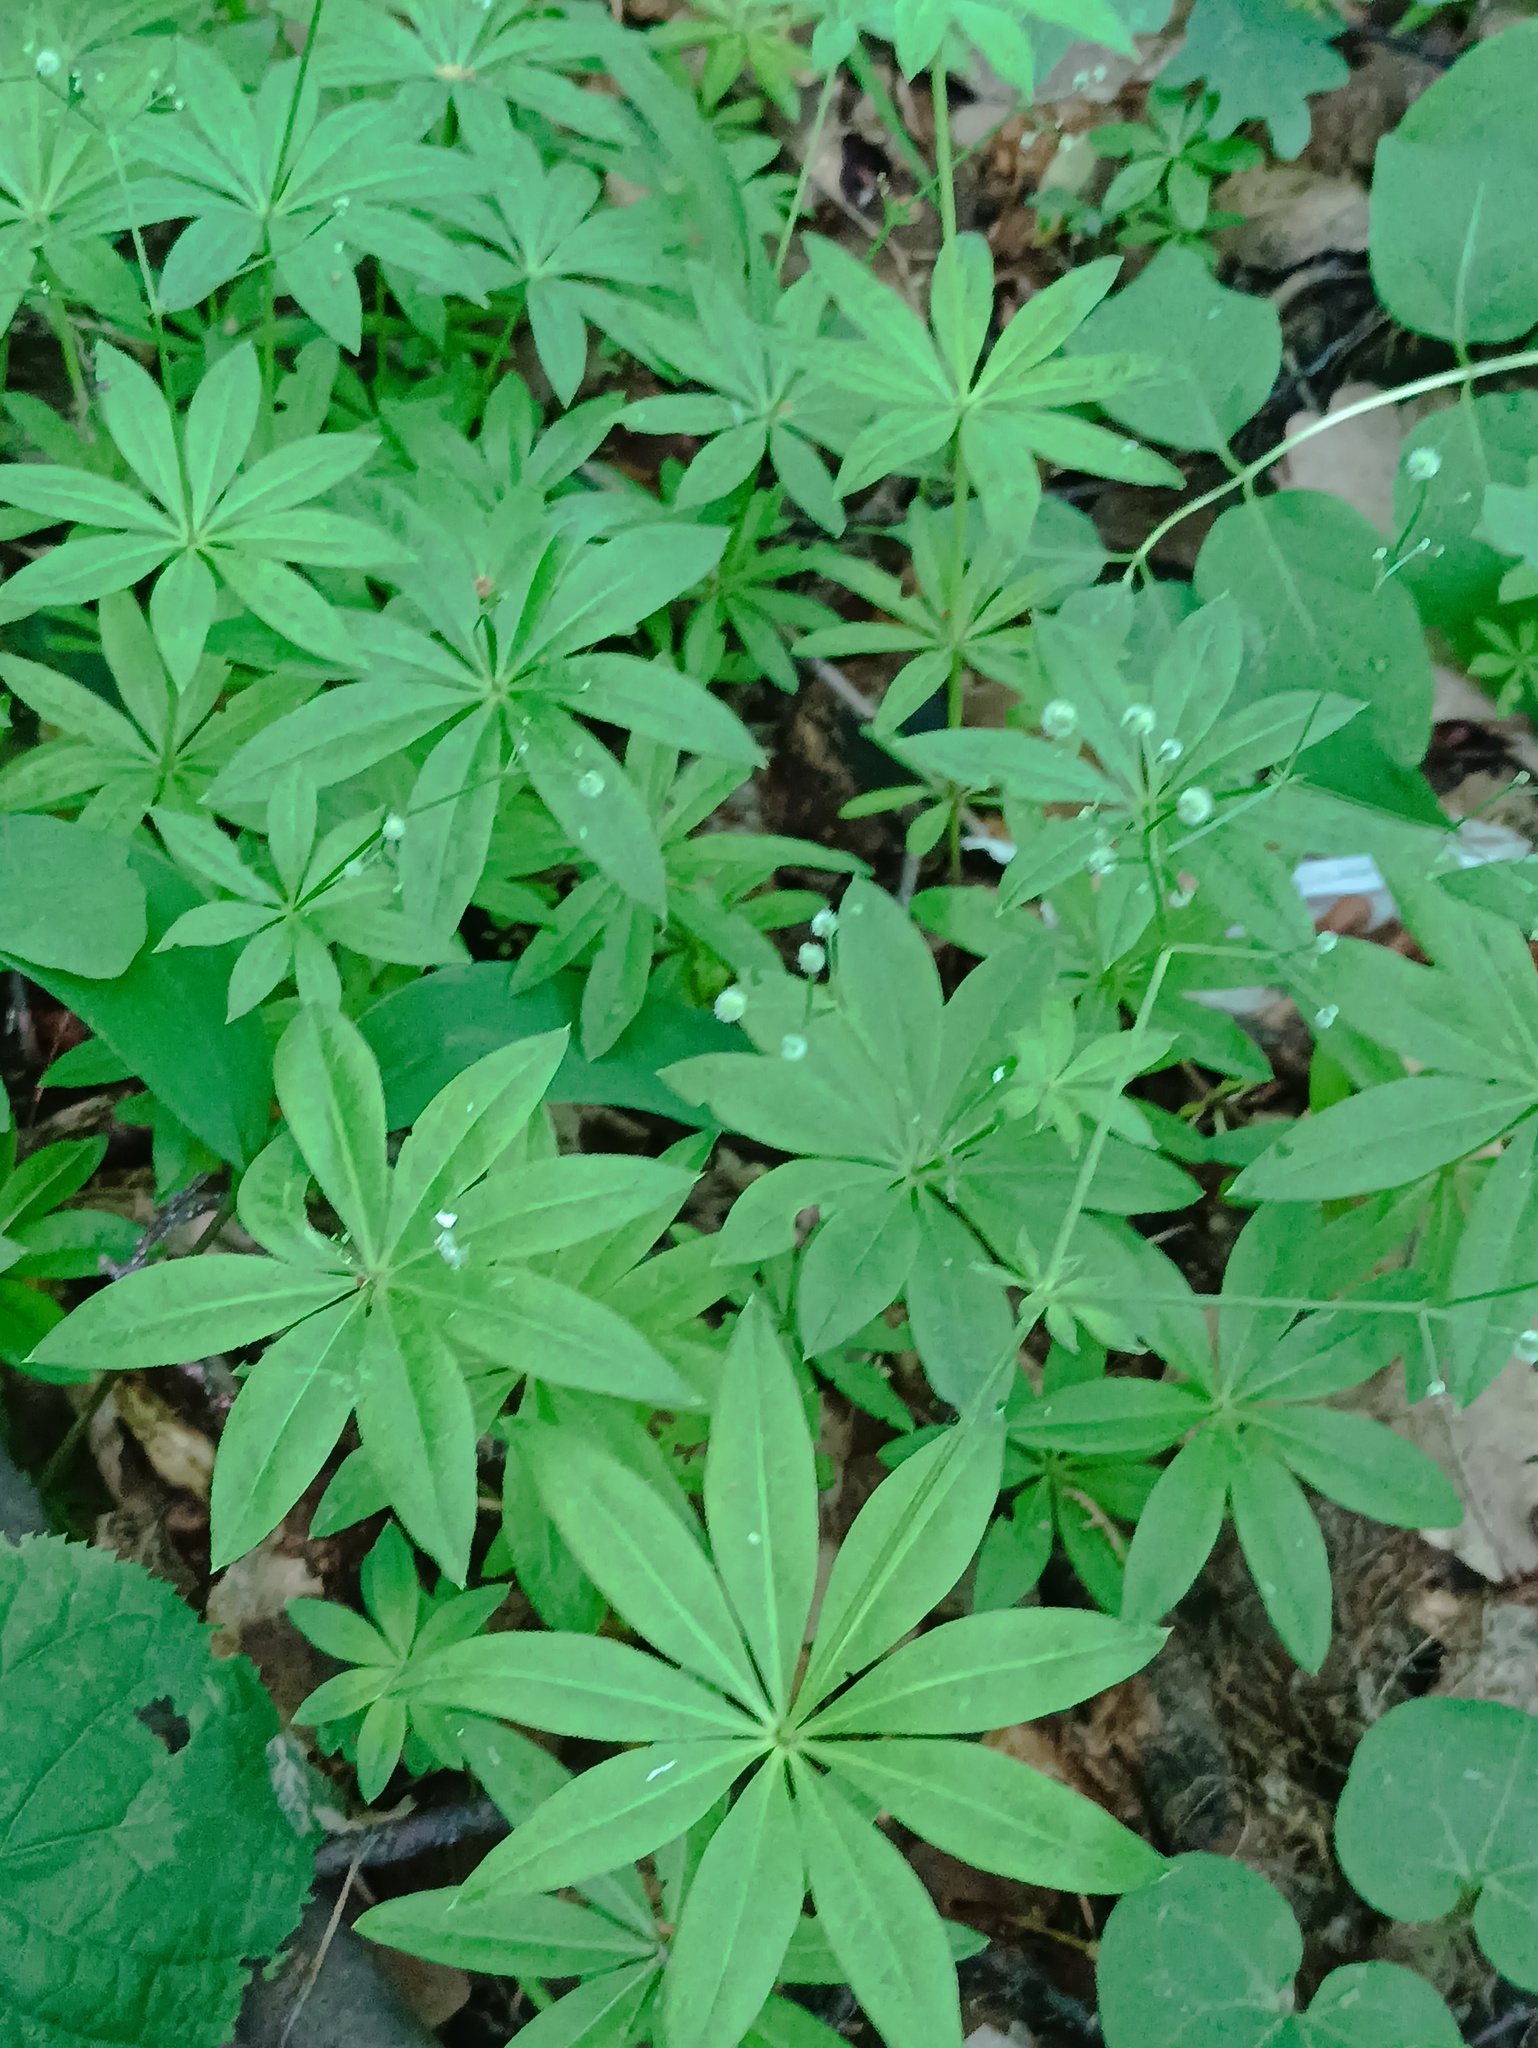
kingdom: Plantae
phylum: Tracheophyta
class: Magnoliopsida
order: Gentianales
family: Rubiaceae
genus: Galium
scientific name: Galium odoratum
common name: Sweet woodruff
